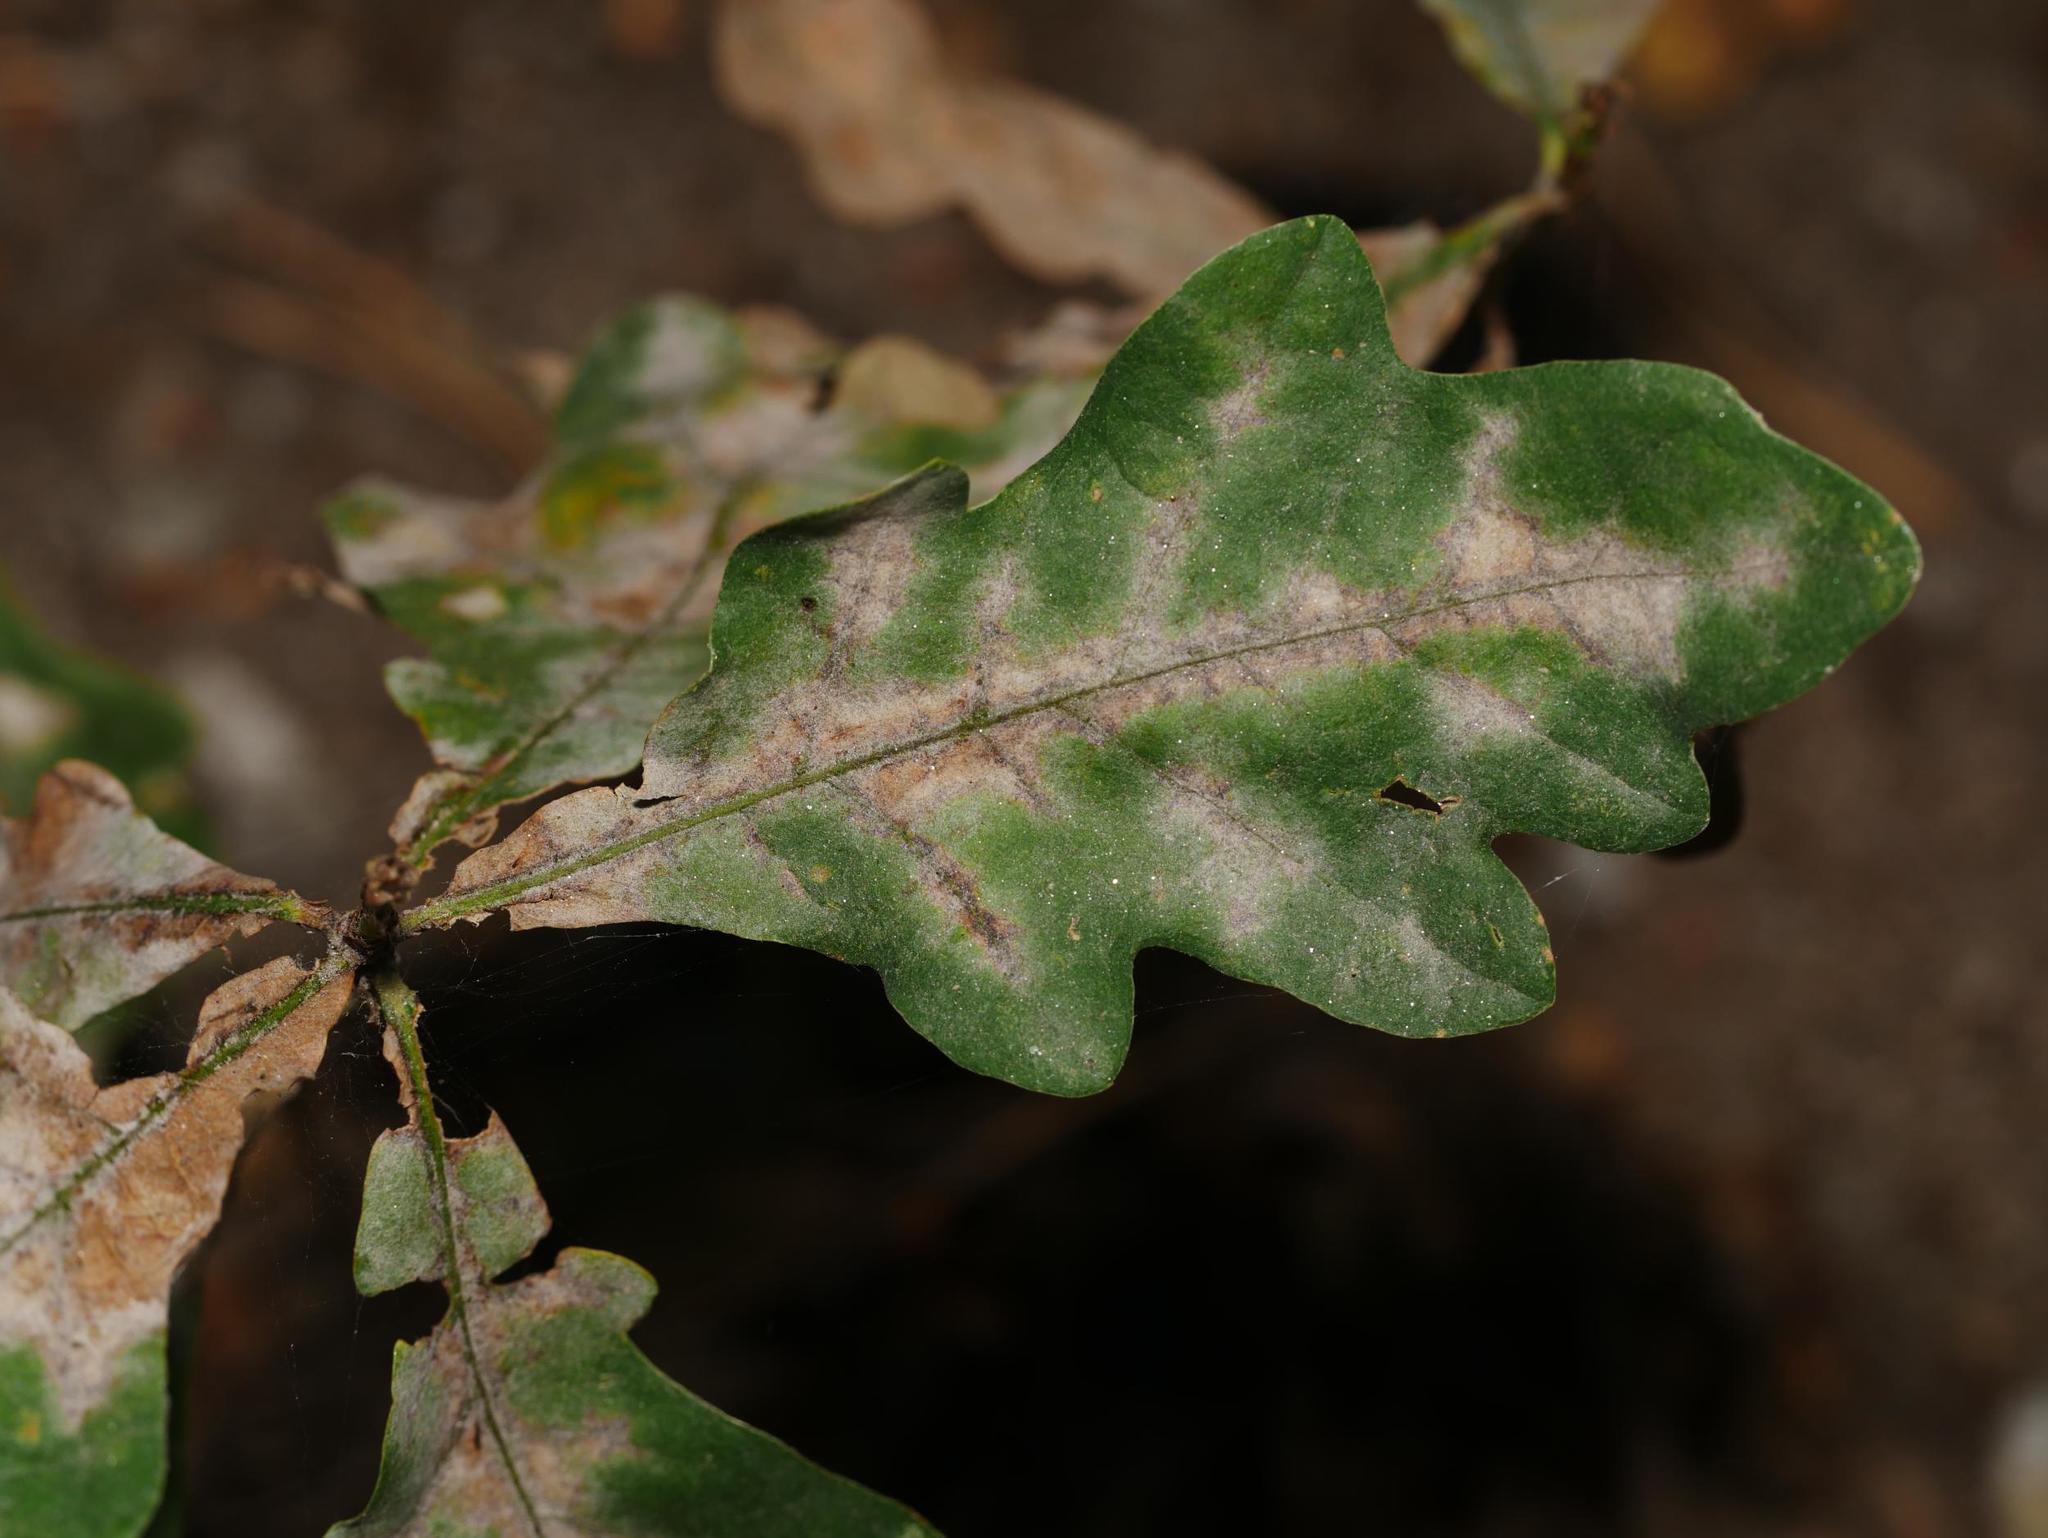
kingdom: Plantae
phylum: Tracheophyta
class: Magnoliopsida
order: Fagales
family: Fagaceae
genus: Quercus
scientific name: Quercus robur
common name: Pedunculate oak
